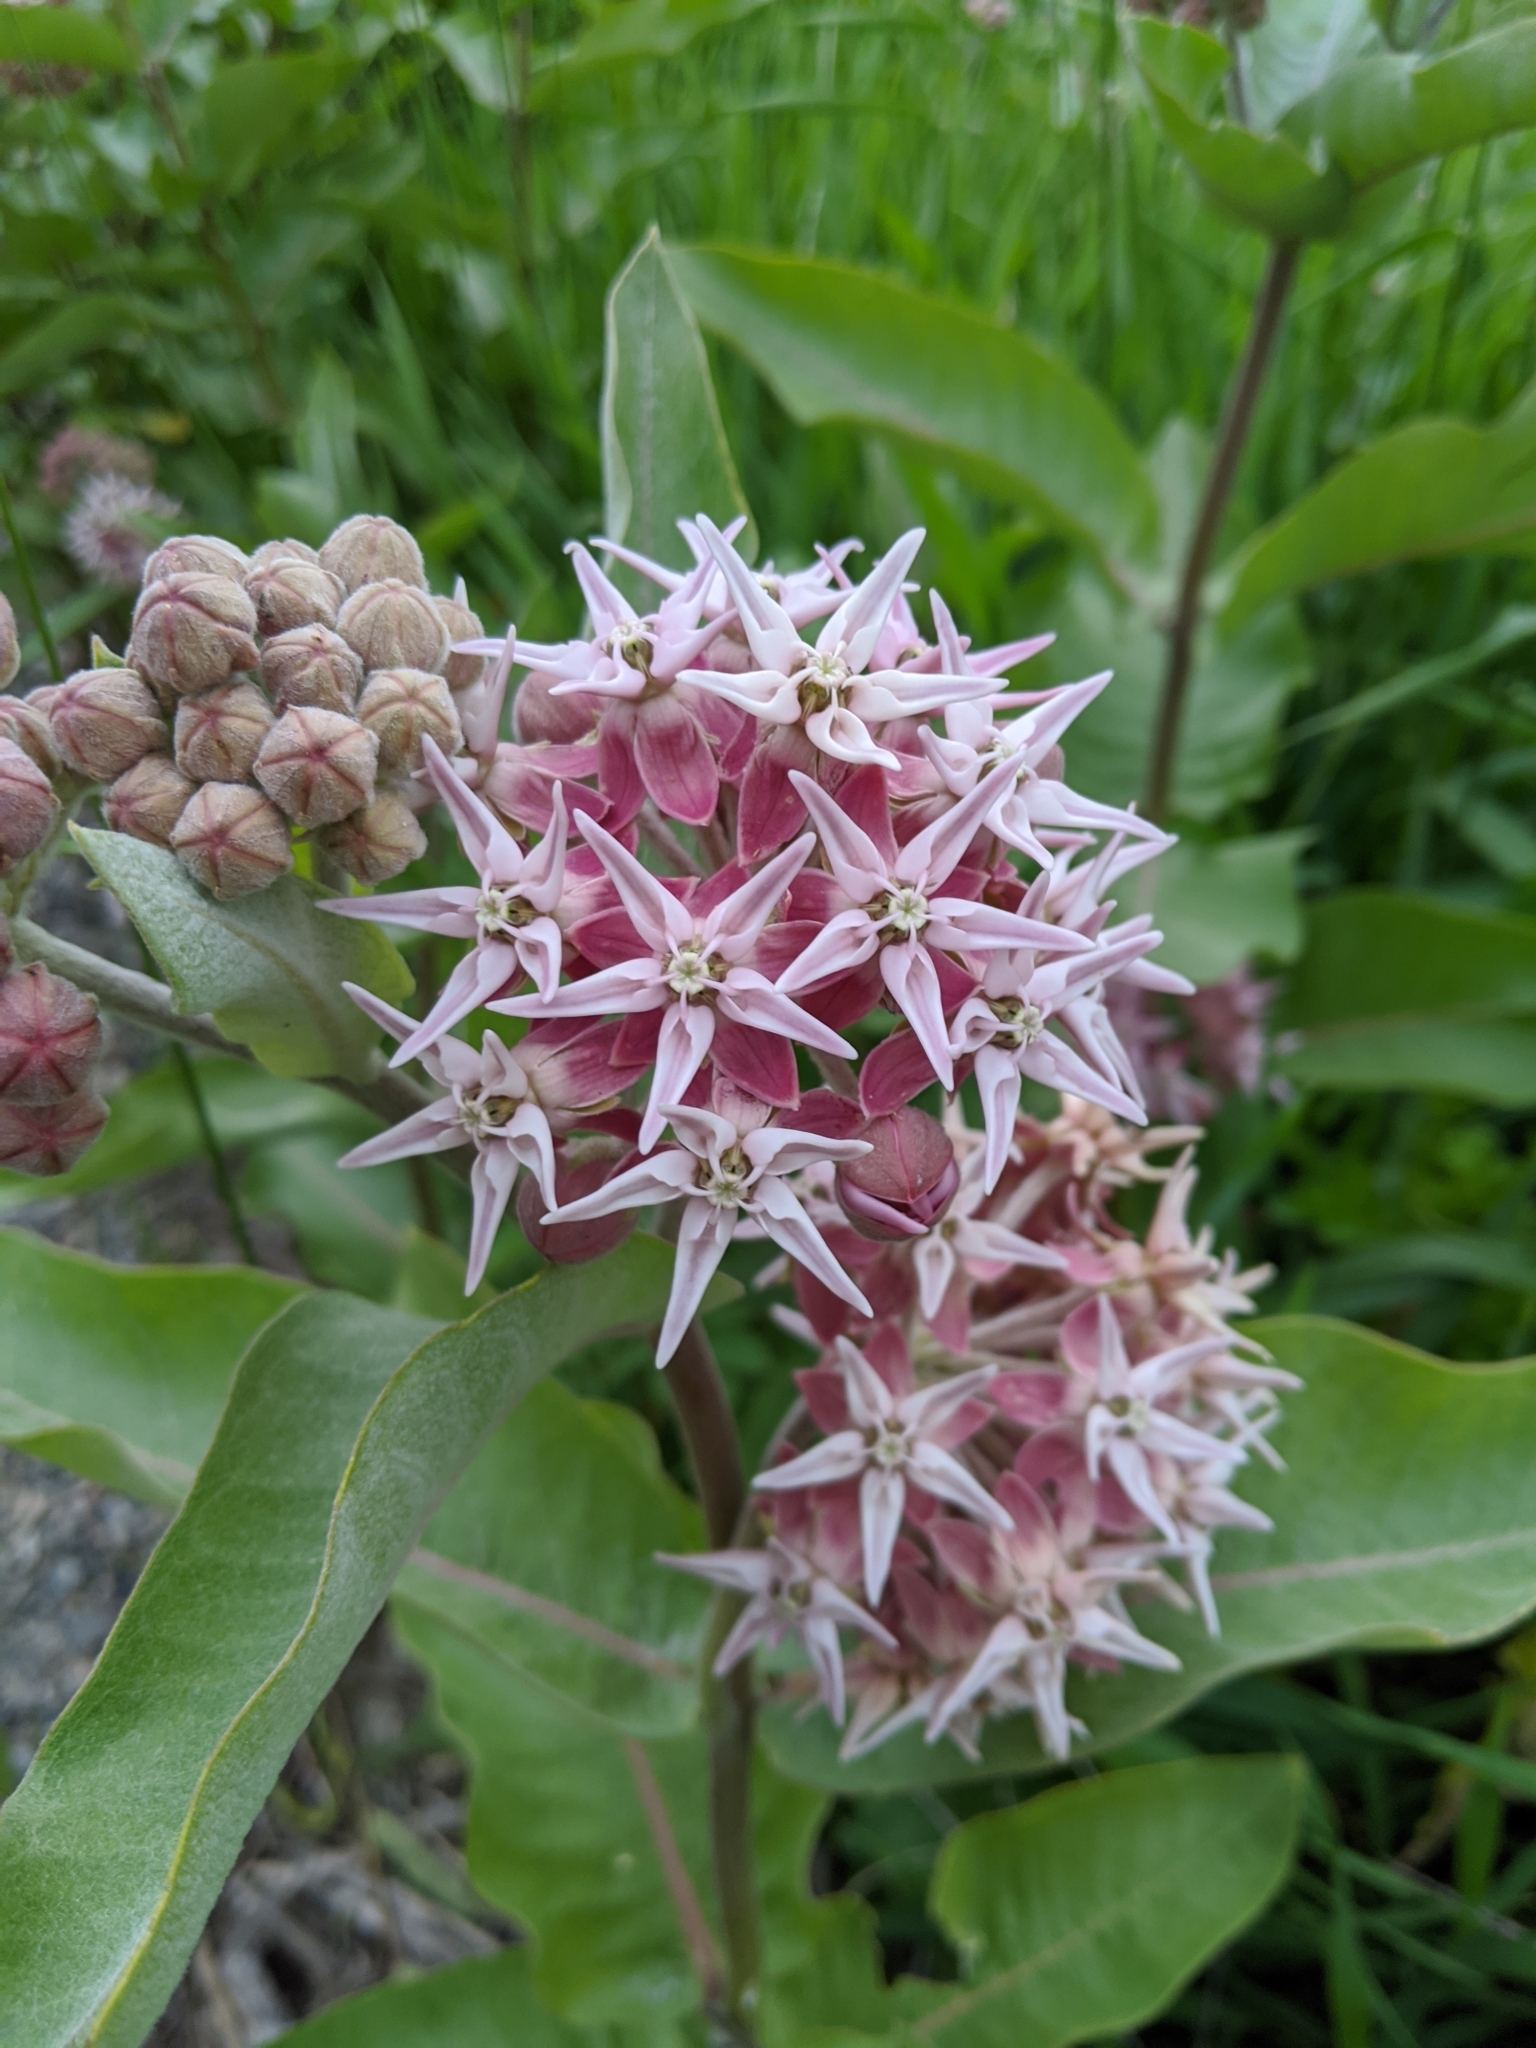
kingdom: Plantae
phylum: Tracheophyta
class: Magnoliopsida
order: Gentianales
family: Apocynaceae
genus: Asclepias
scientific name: Asclepias speciosa
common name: Showy milkweed
